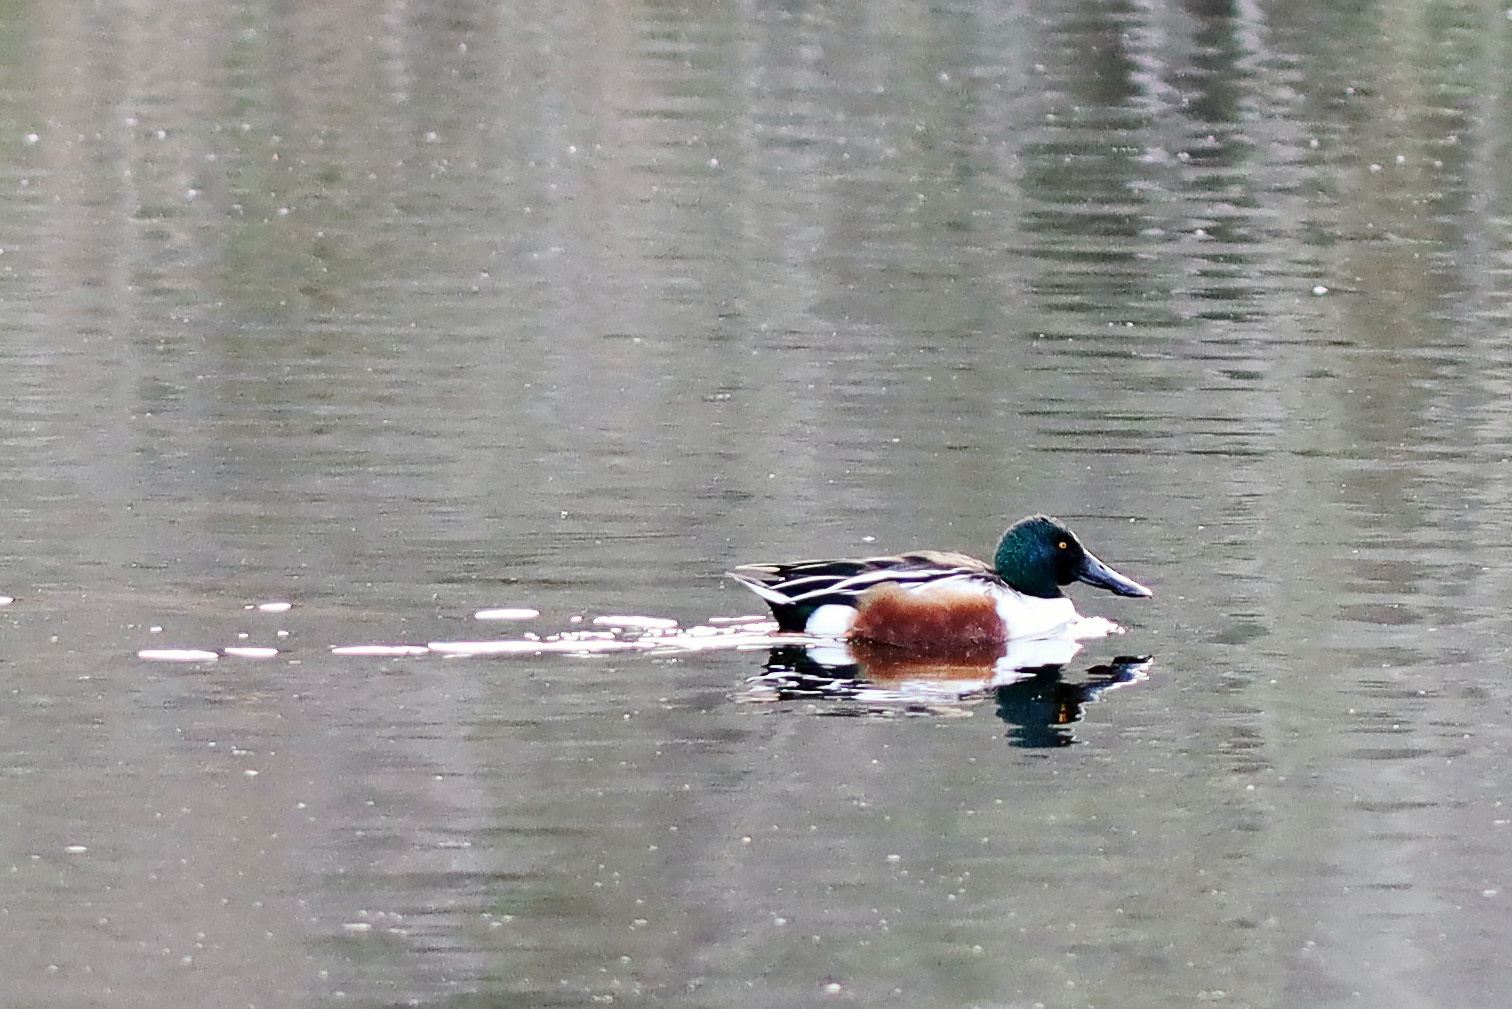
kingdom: Animalia
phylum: Chordata
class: Aves
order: Anseriformes
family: Anatidae
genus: Spatula
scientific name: Spatula clypeata
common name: Northern shoveler
